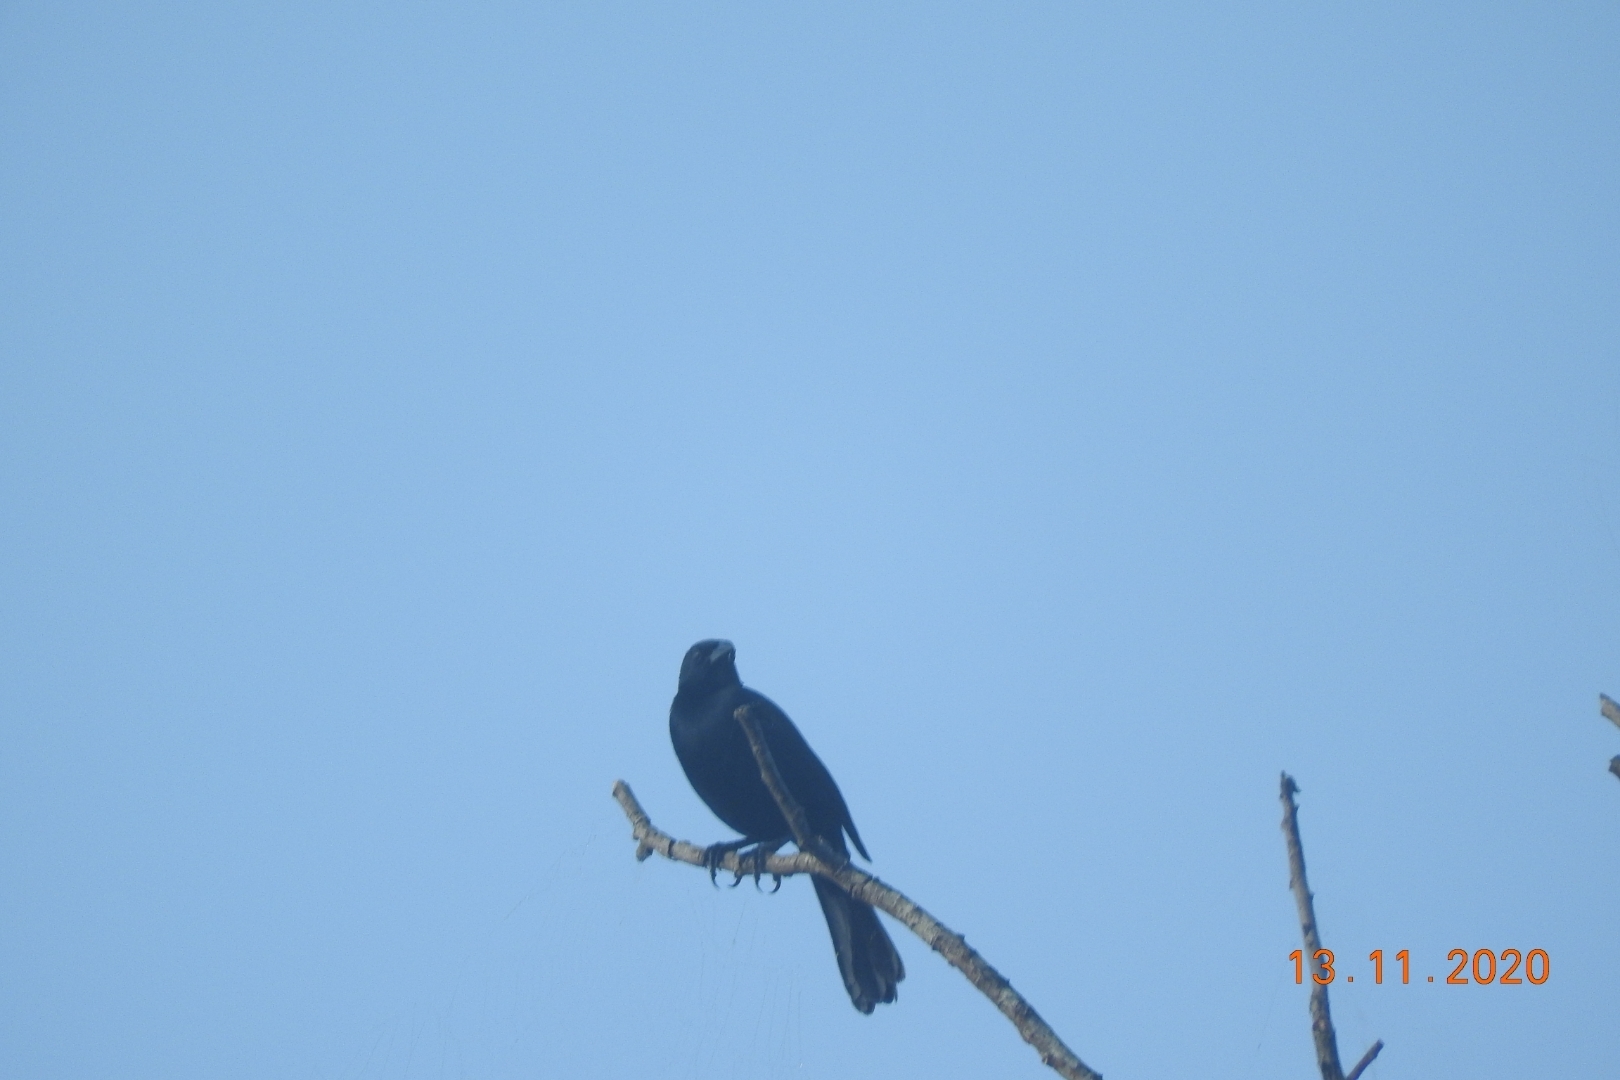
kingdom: Animalia
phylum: Chordata
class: Aves
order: Passeriformes
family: Icteridae
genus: Dives
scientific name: Dives dives
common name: Melodious blackbird
